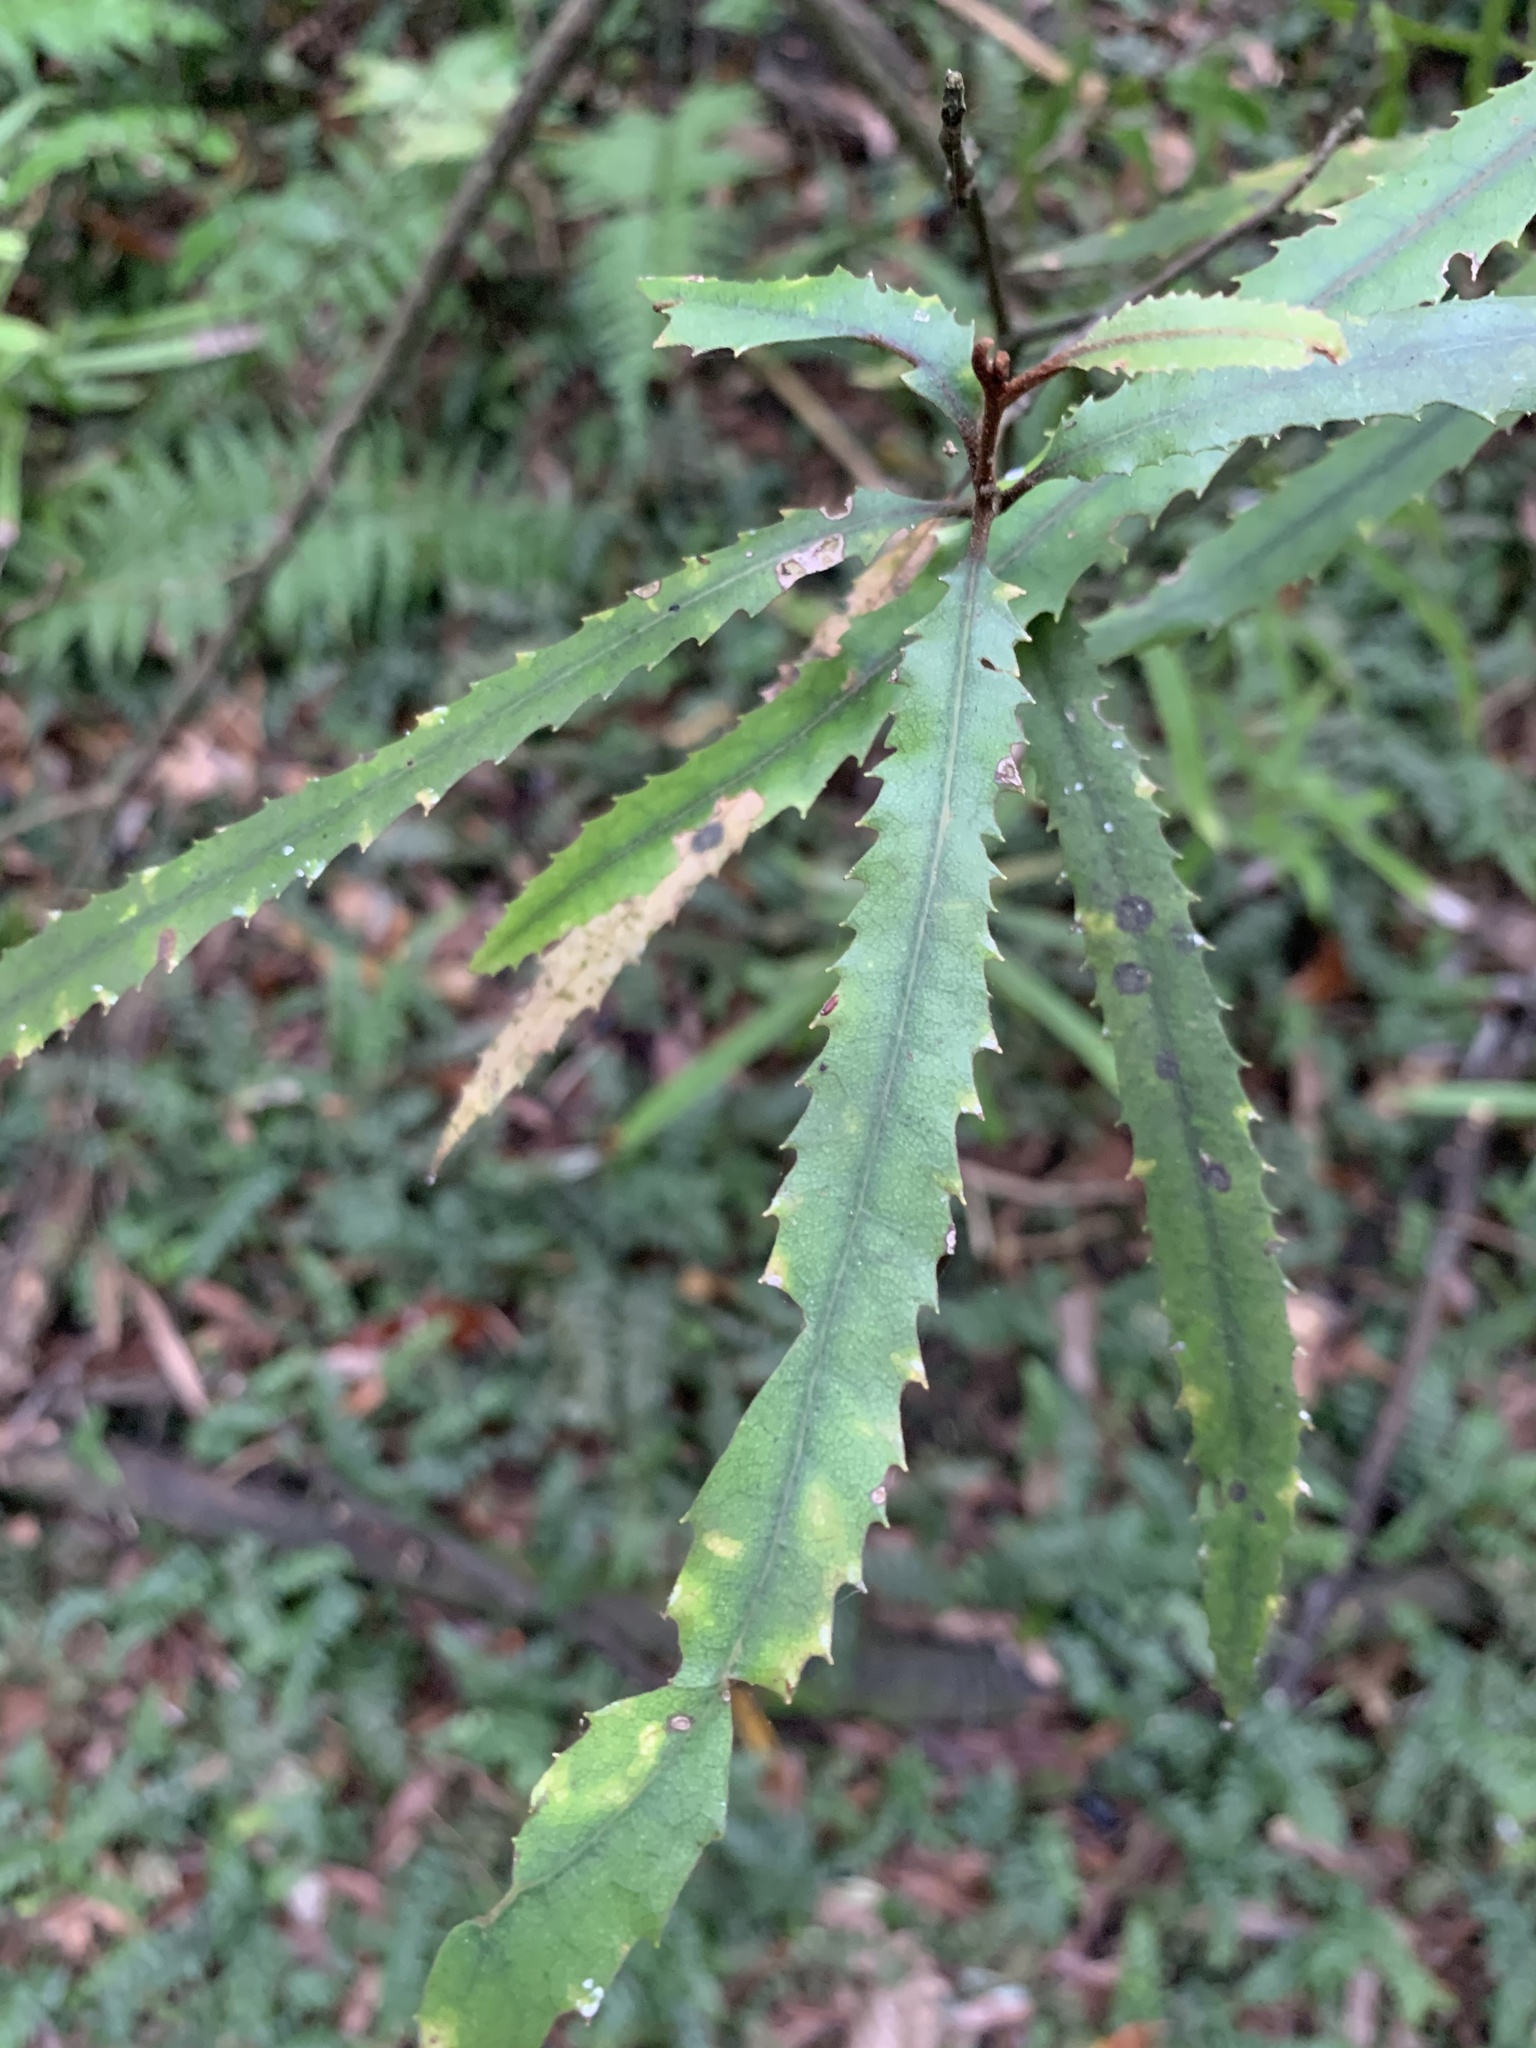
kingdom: Plantae
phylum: Tracheophyta
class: Magnoliopsida
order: Proteales
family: Proteaceae
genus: Knightia
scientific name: Knightia excelsa
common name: New zealand-honeysuckle
